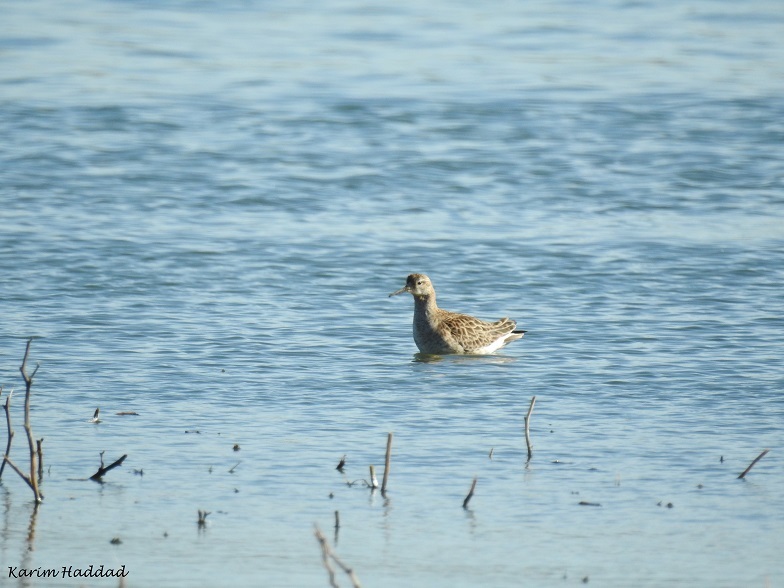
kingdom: Animalia
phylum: Chordata
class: Aves
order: Charadriiformes
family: Scolopacidae
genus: Calidris
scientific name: Calidris pugnax
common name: Ruff
